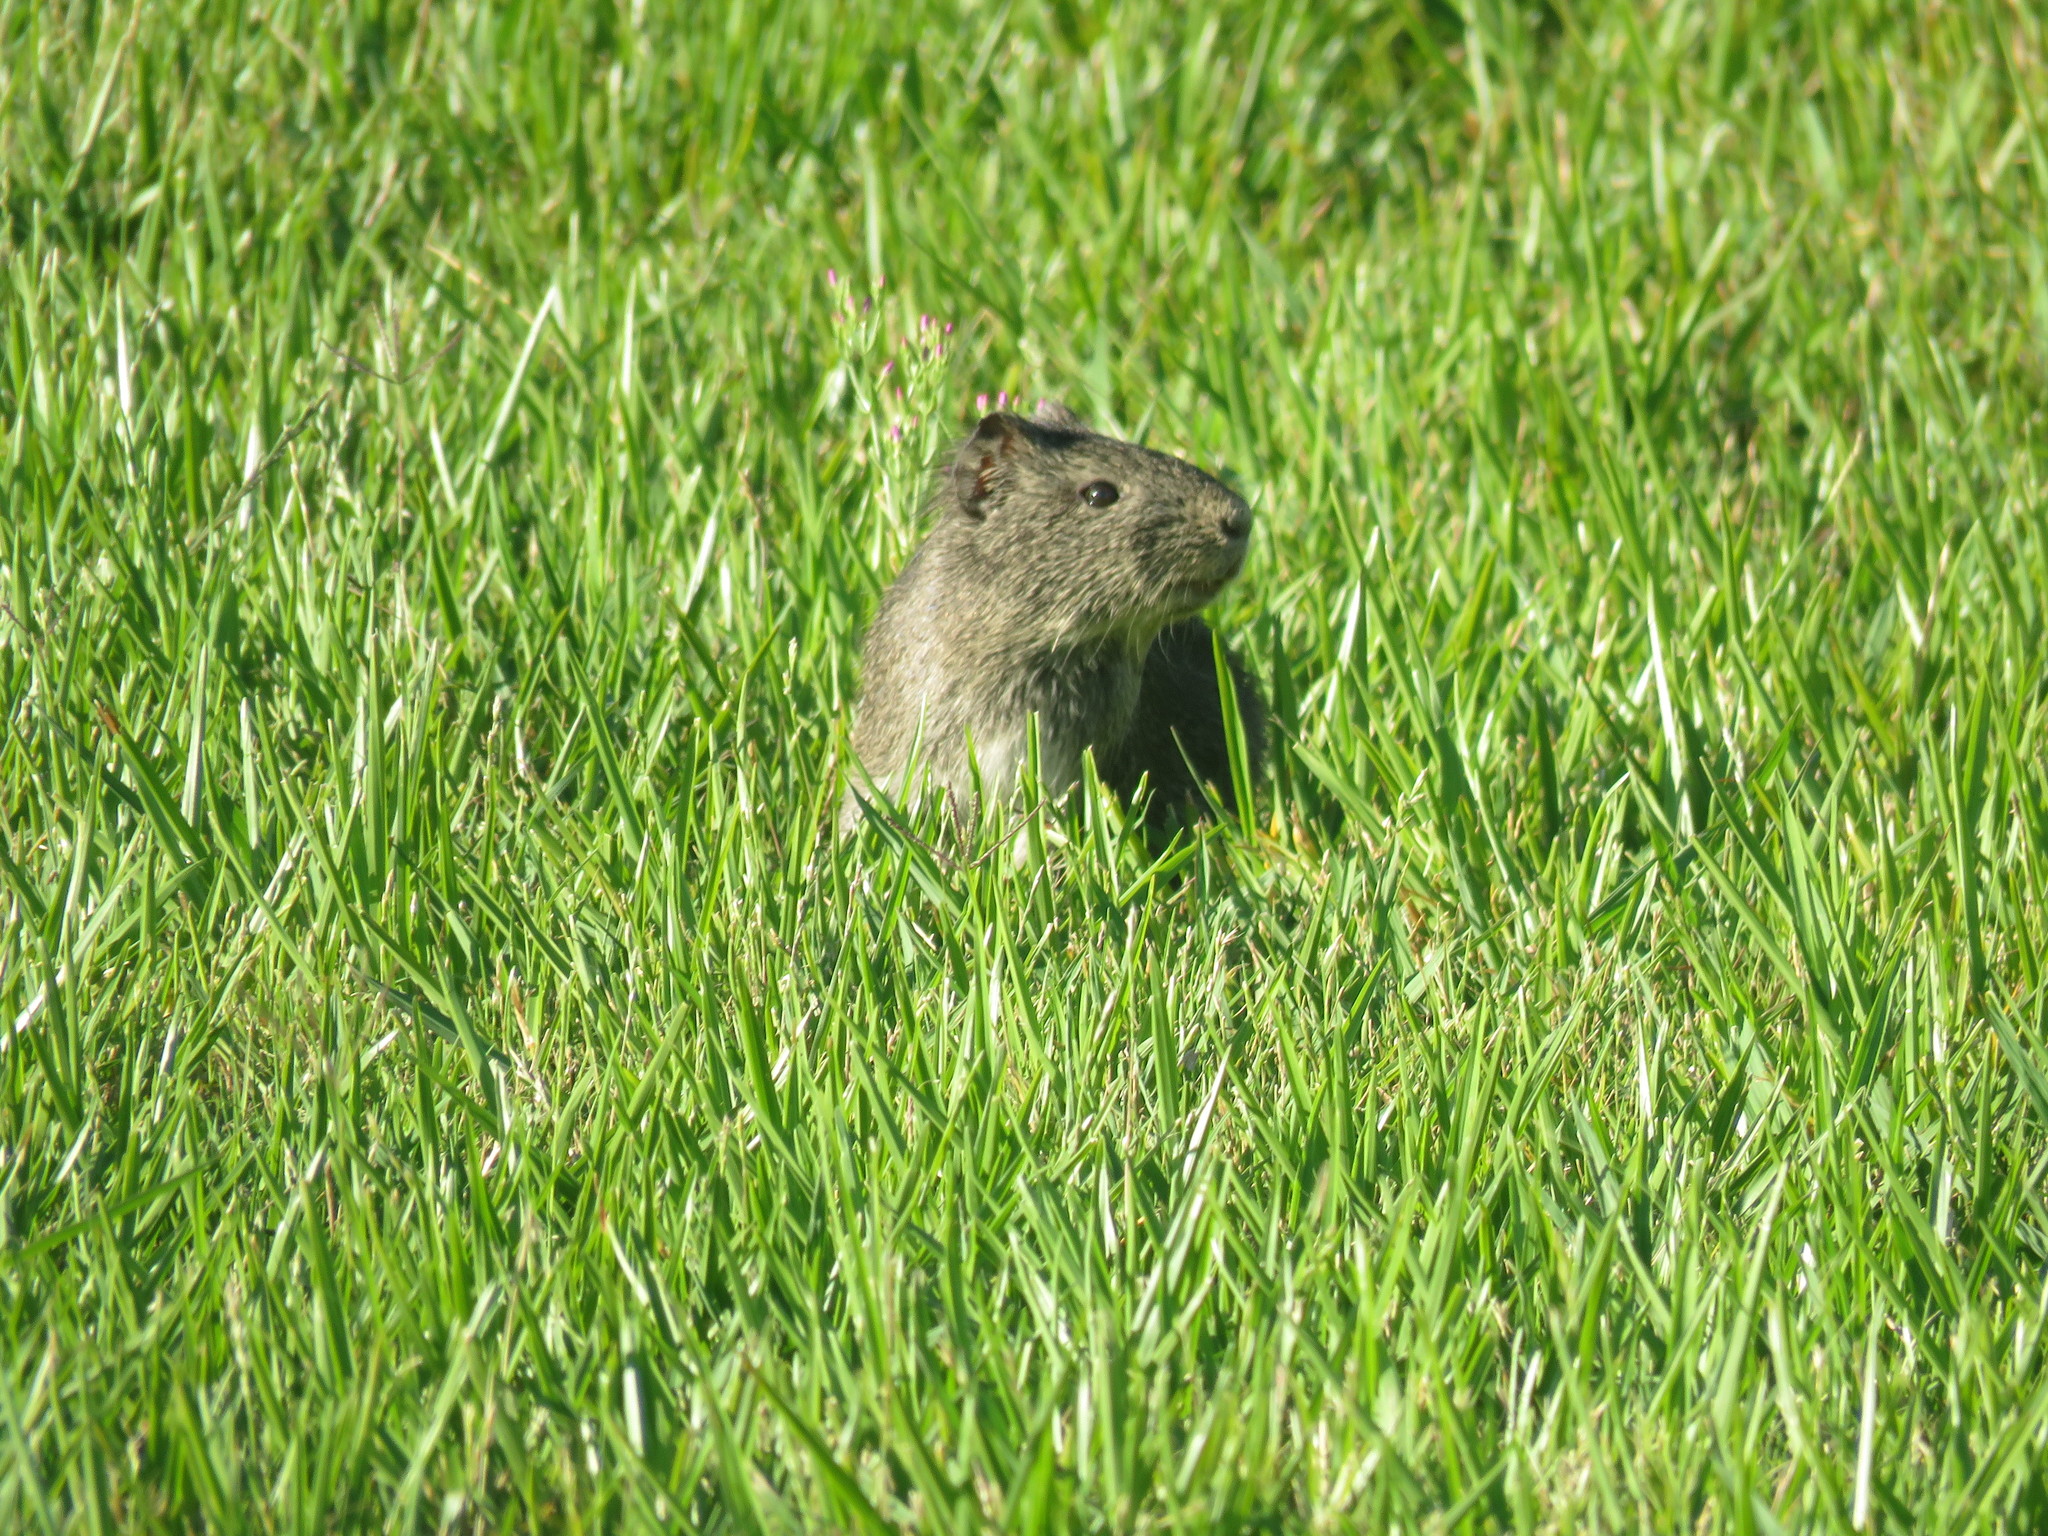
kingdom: Animalia
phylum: Chordata
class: Mammalia
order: Rodentia
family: Caviidae
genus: Cavia
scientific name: Cavia aperea
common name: Brazilian guinea pig
